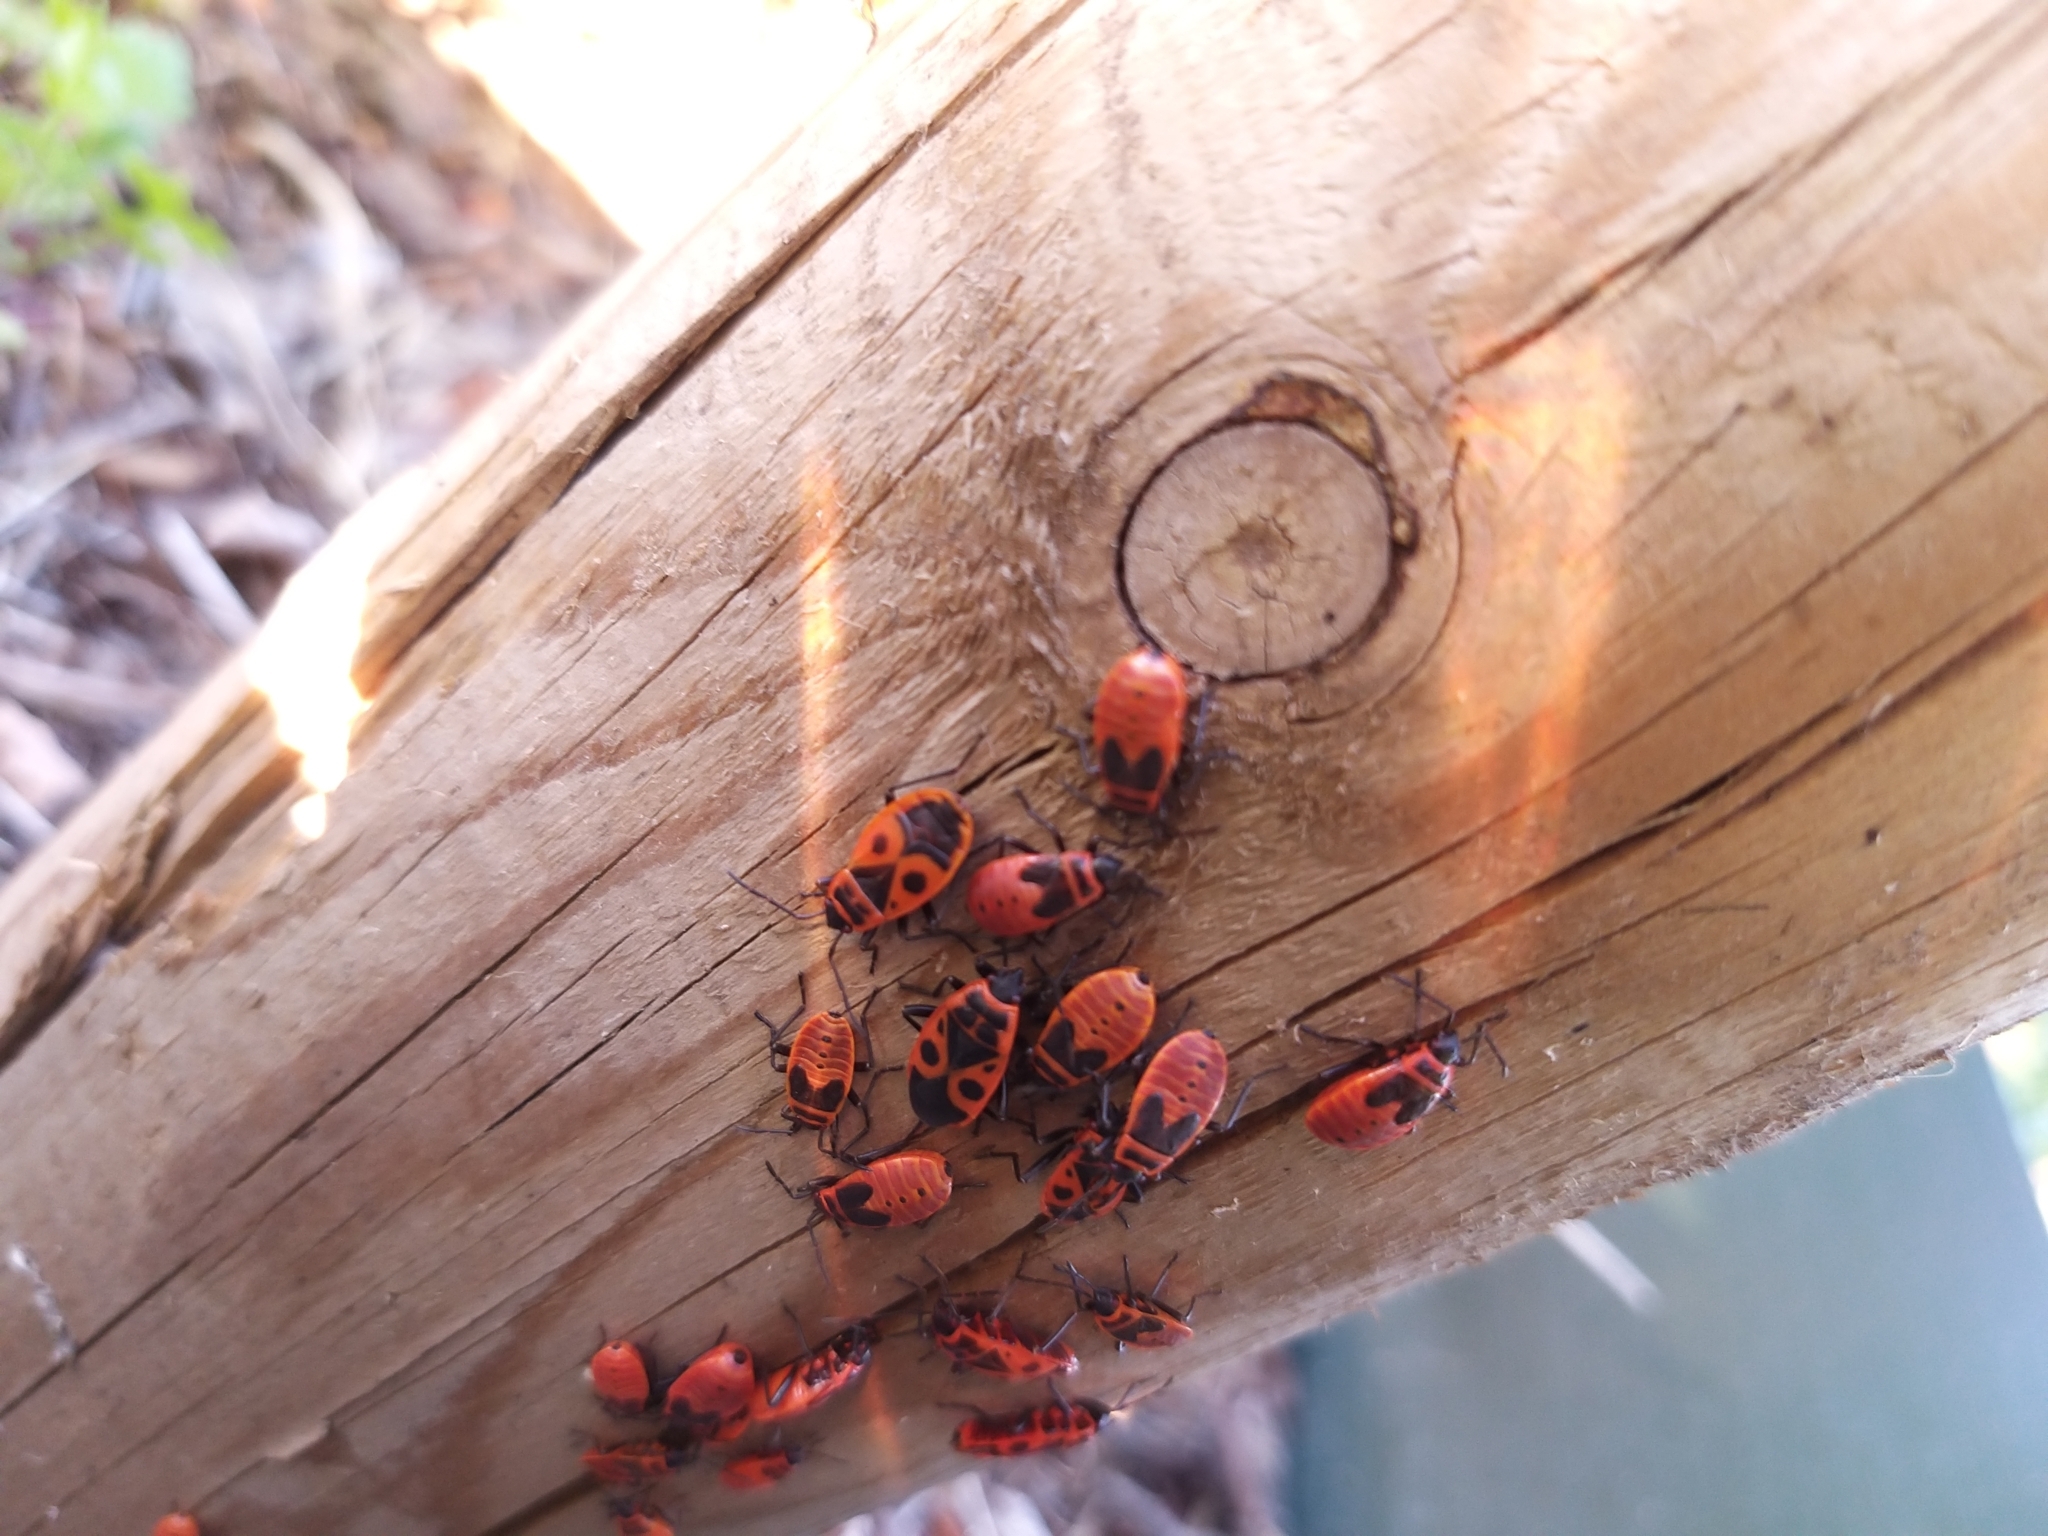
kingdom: Animalia
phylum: Arthropoda
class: Insecta
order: Hemiptera
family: Pyrrhocoridae
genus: Pyrrhocoris
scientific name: Pyrrhocoris apterus
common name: Firebug
